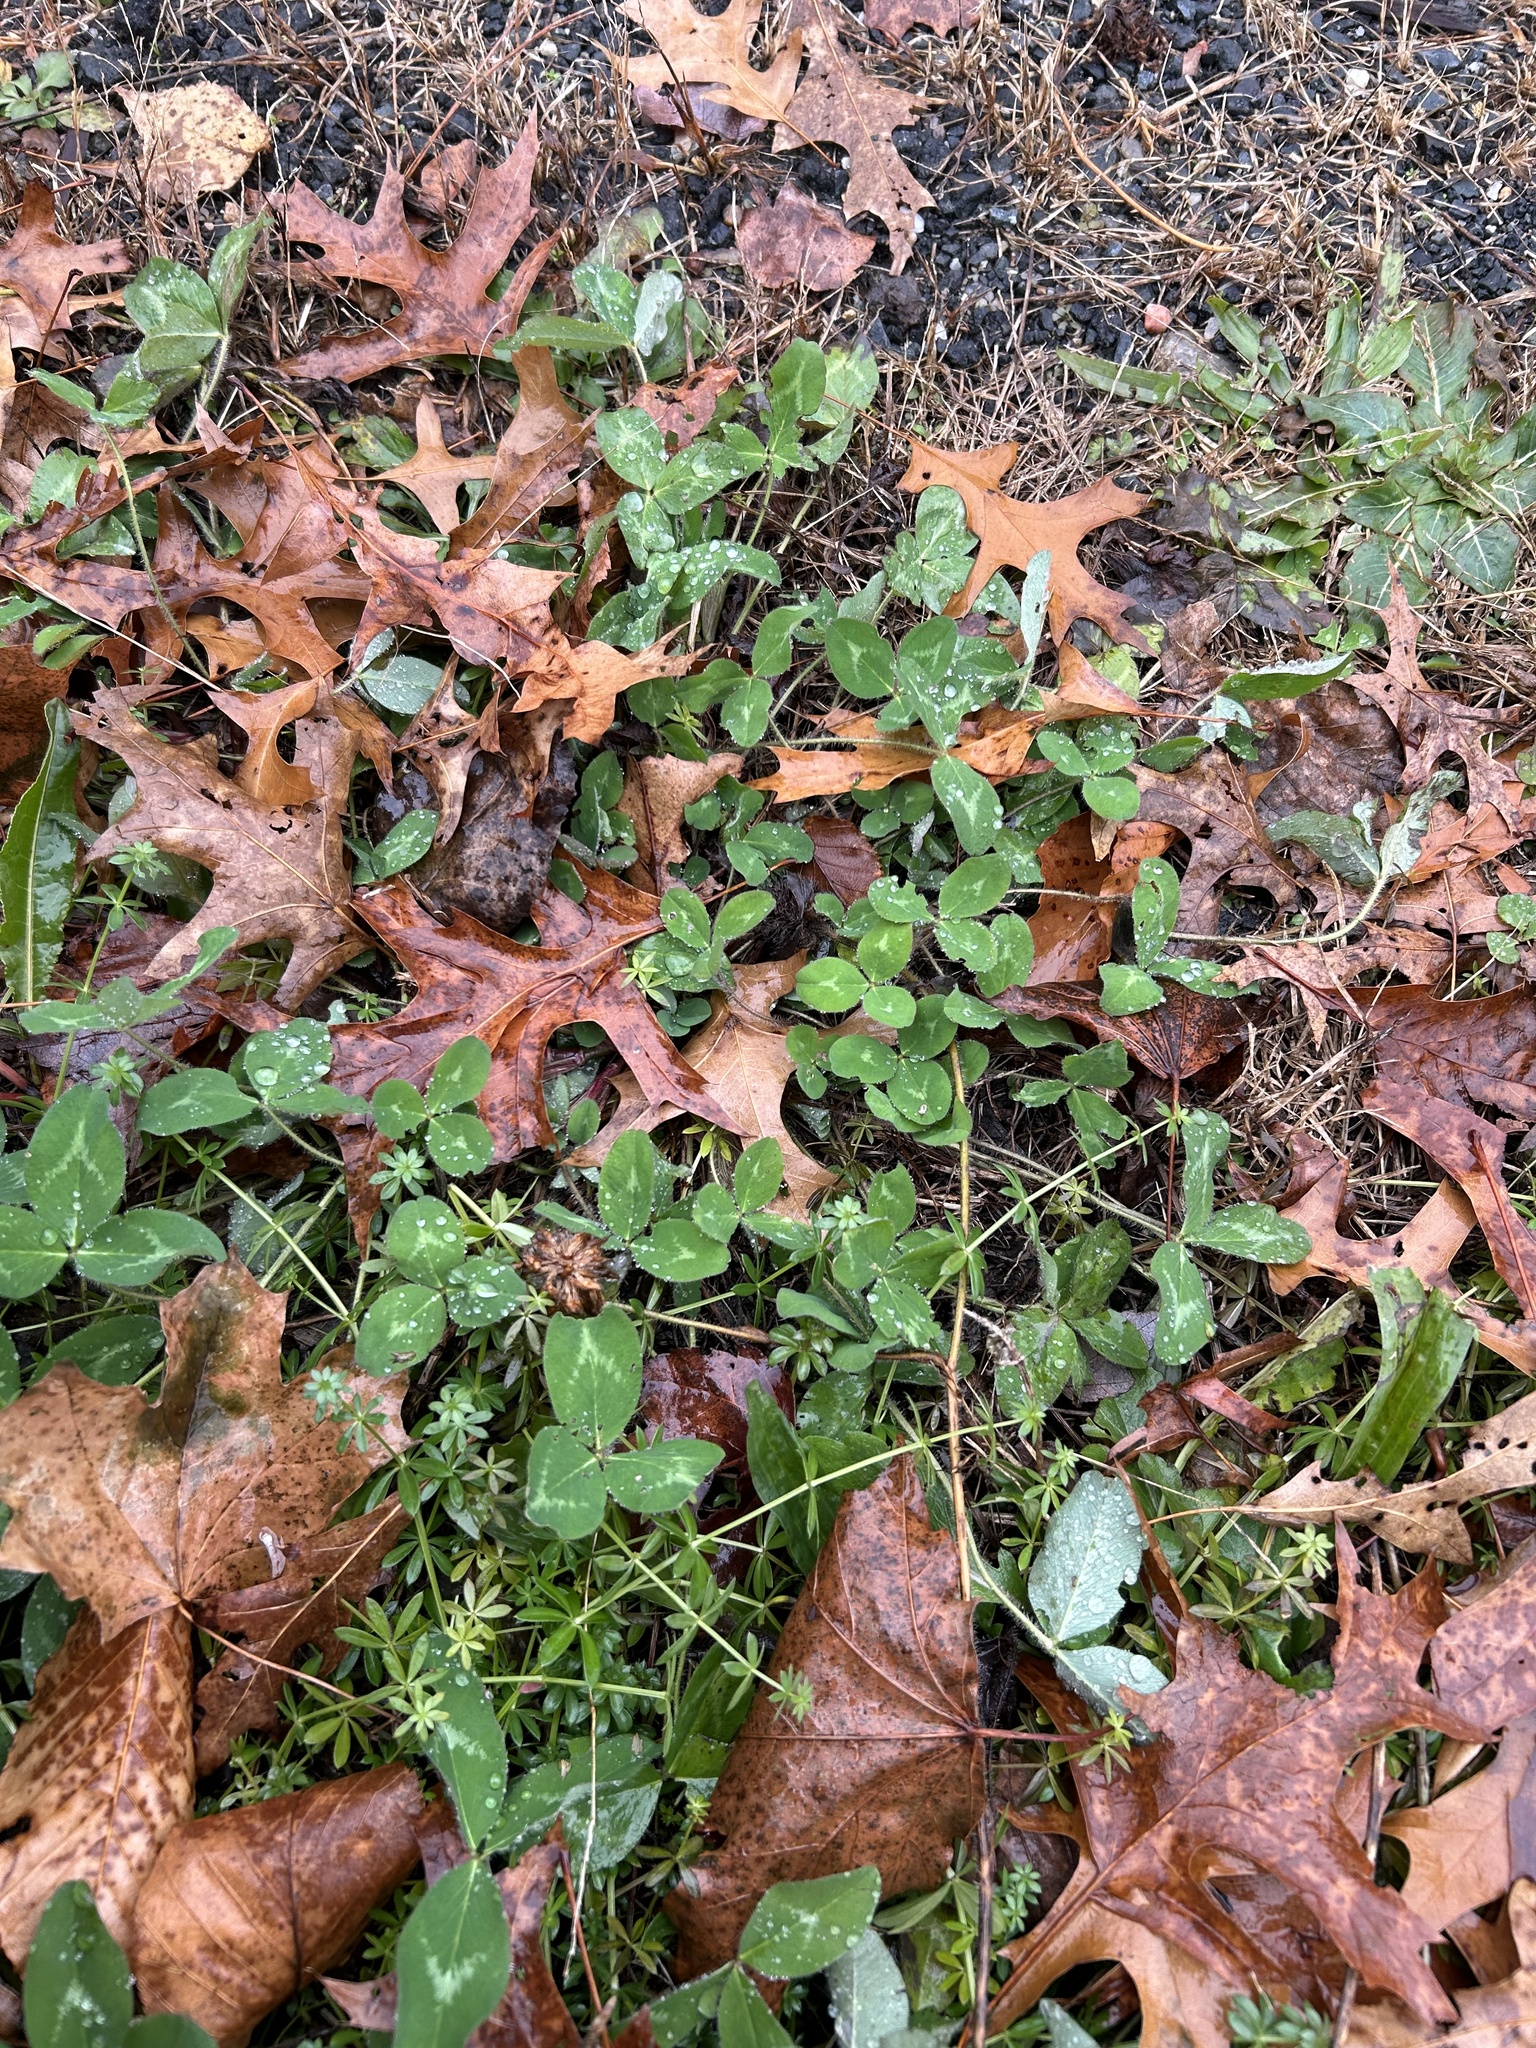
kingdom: Plantae
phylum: Tracheophyta
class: Magnoliopsida
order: Fabales
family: Fabaceae
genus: Trifolium
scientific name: Trifolium pratense
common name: Red clover
